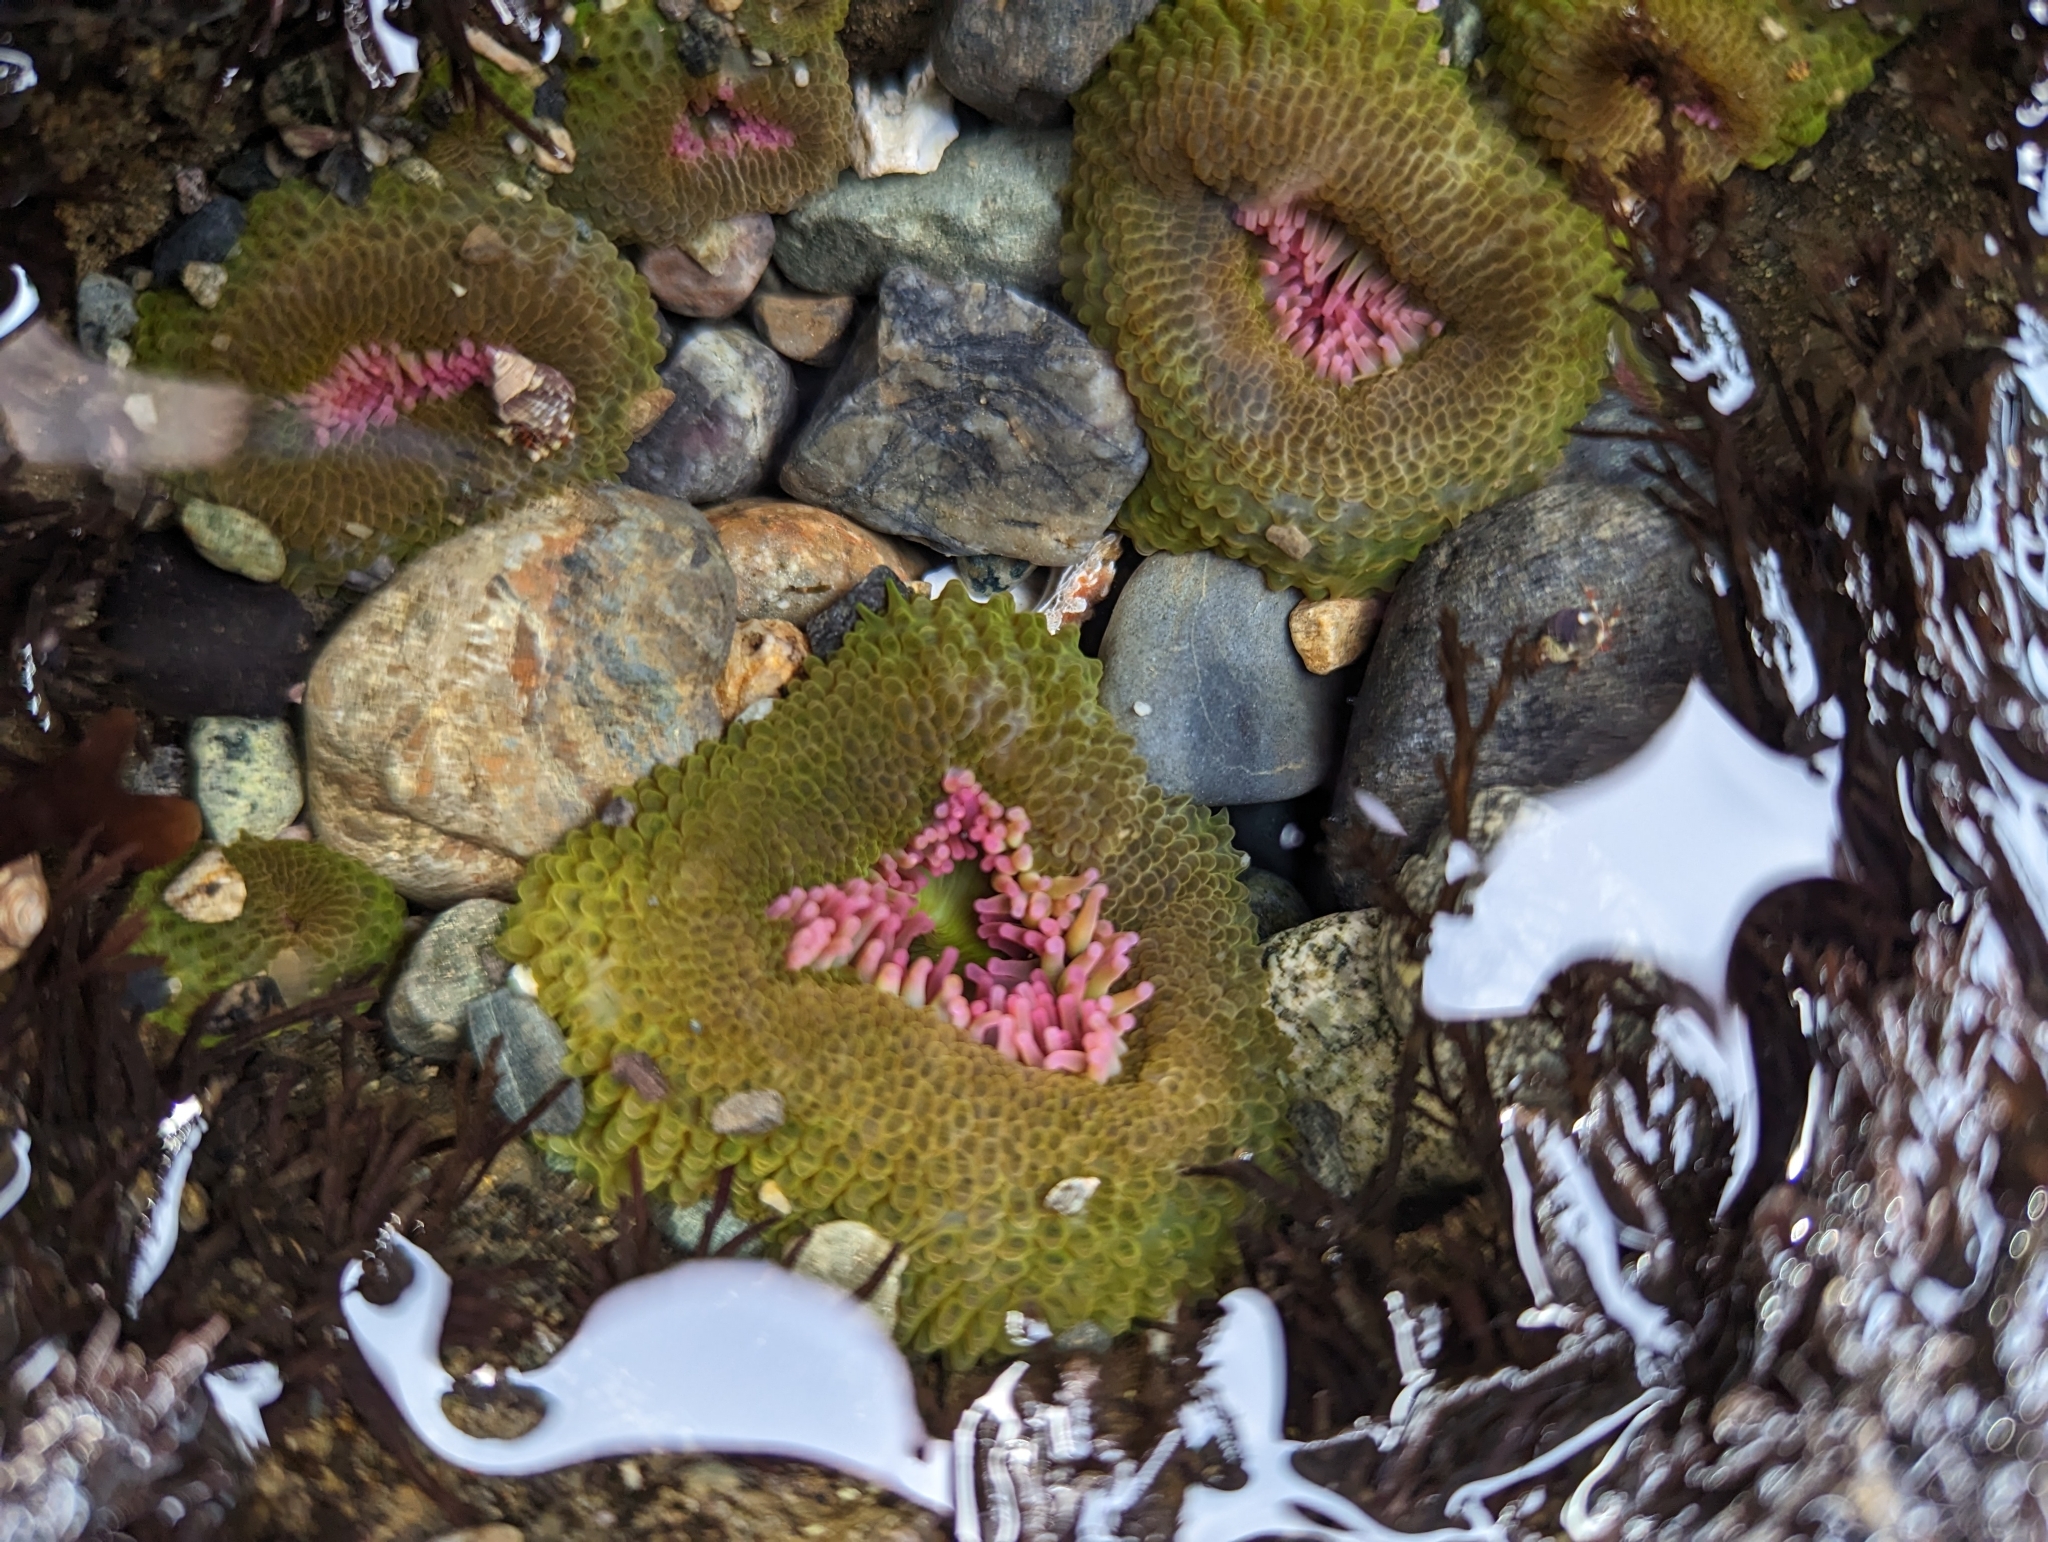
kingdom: Animalia
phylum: Cnidaria
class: Anthozoa
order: Actiniaria
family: Actiniidae
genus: Anthopleura
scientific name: Anthopleura elegantissima
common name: Clonal anemone
